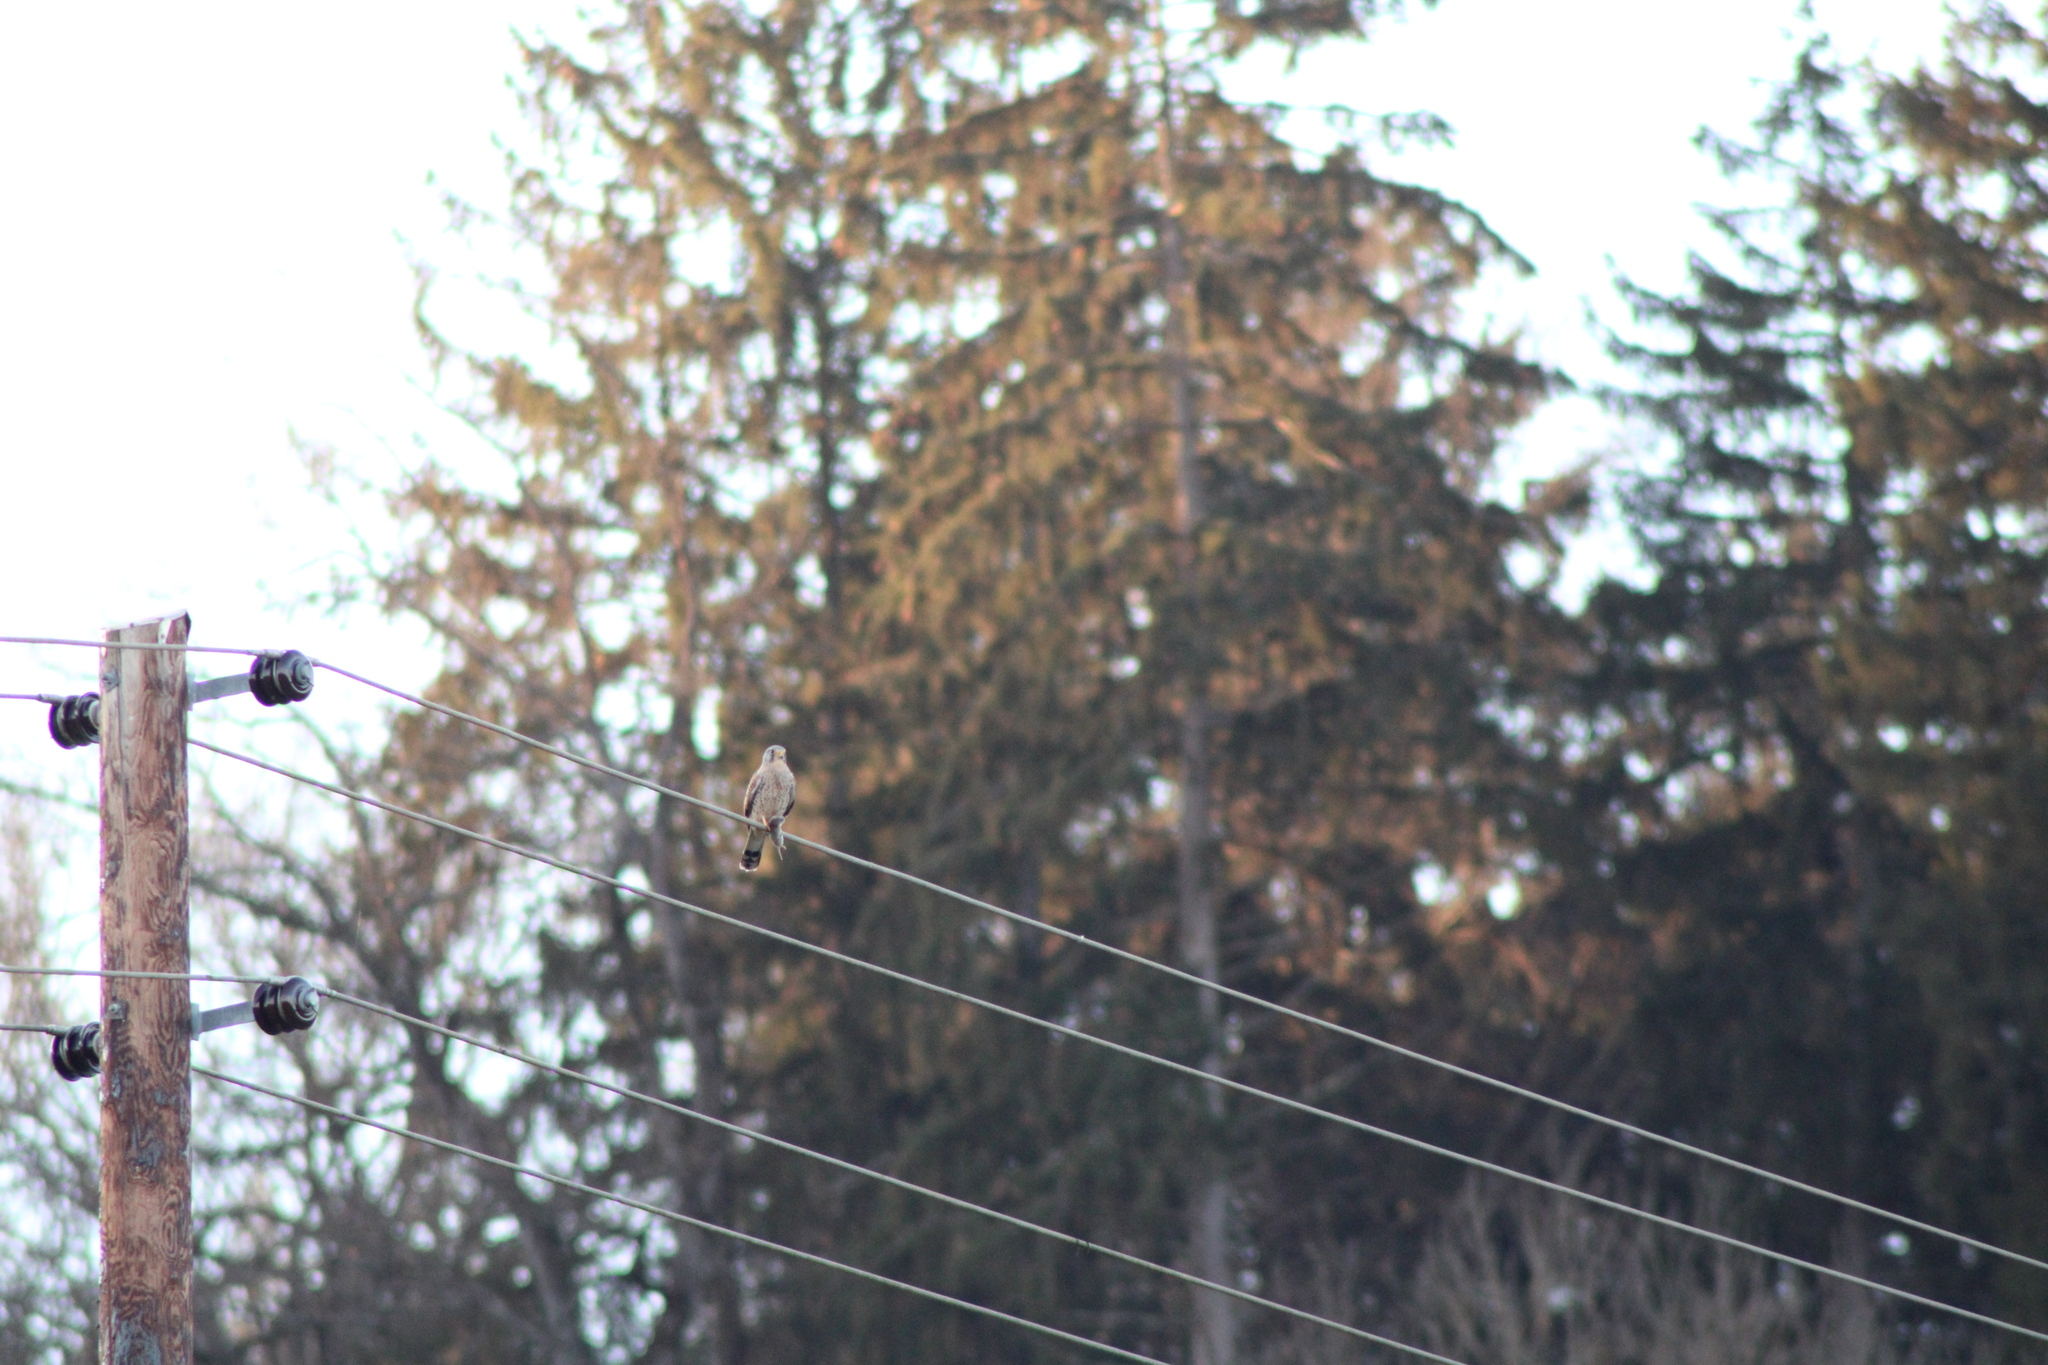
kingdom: Animalia
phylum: Chordata
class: Aves
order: Falconiformes
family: Falconidae
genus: Falco
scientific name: Falco tinnunculus
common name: Common kestrel
